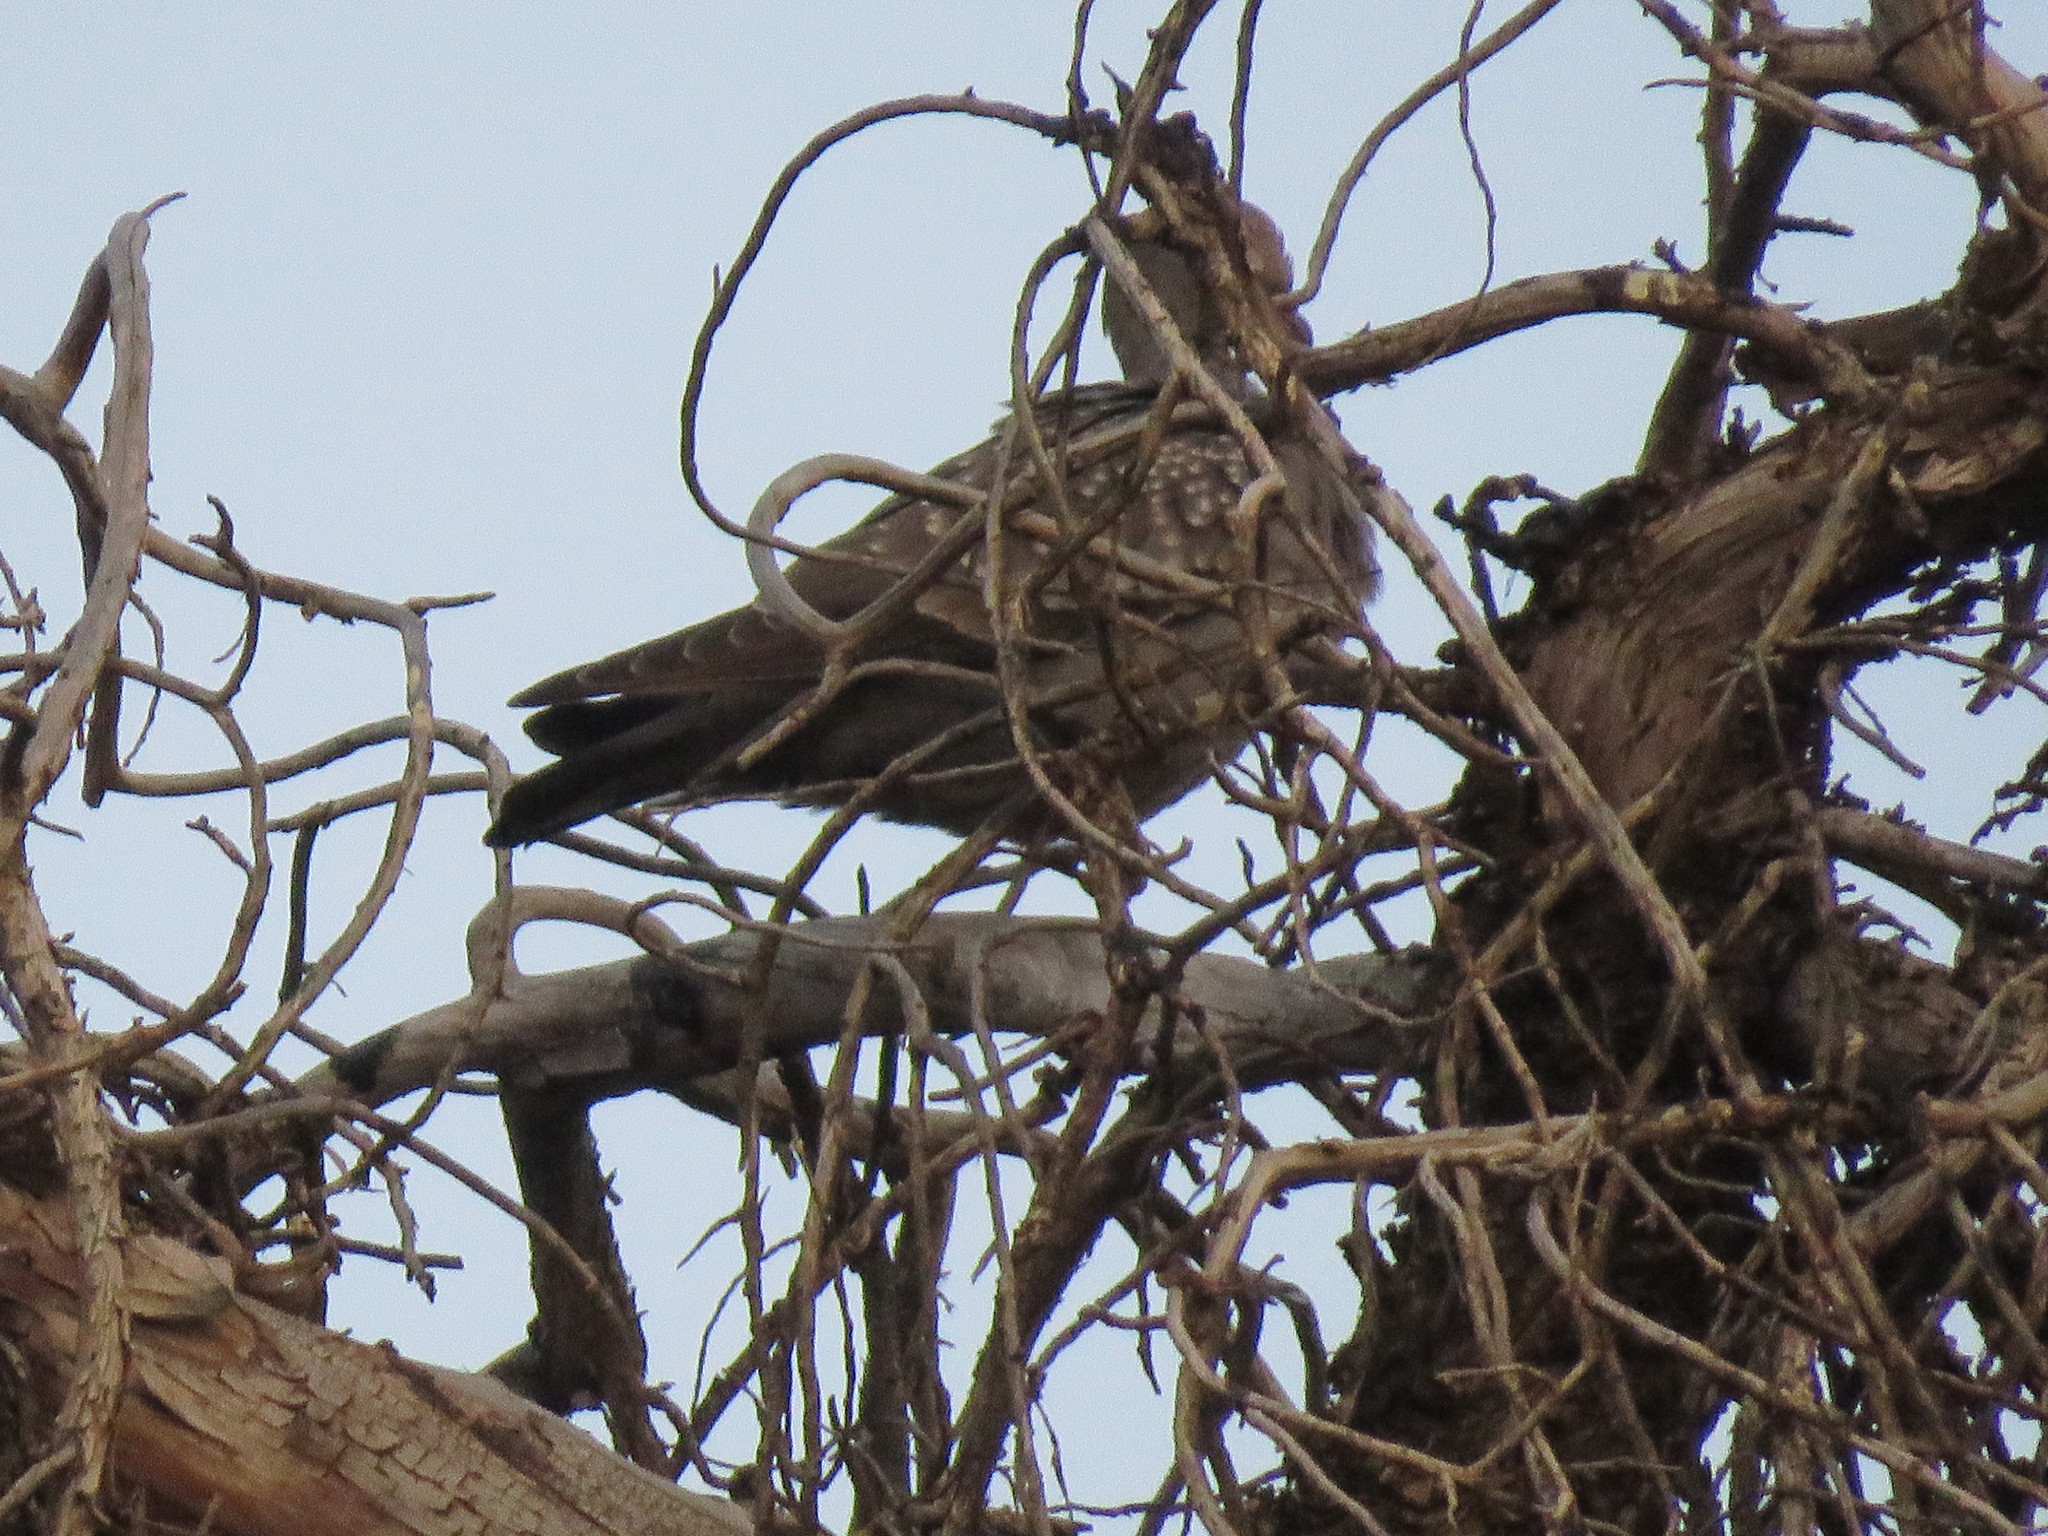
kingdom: Animalia
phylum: Chordata
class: Aves
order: Columbiformes
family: Columbidae
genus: Patagioenas
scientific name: Patagioenas maculosa
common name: Spot-winged pigeon
